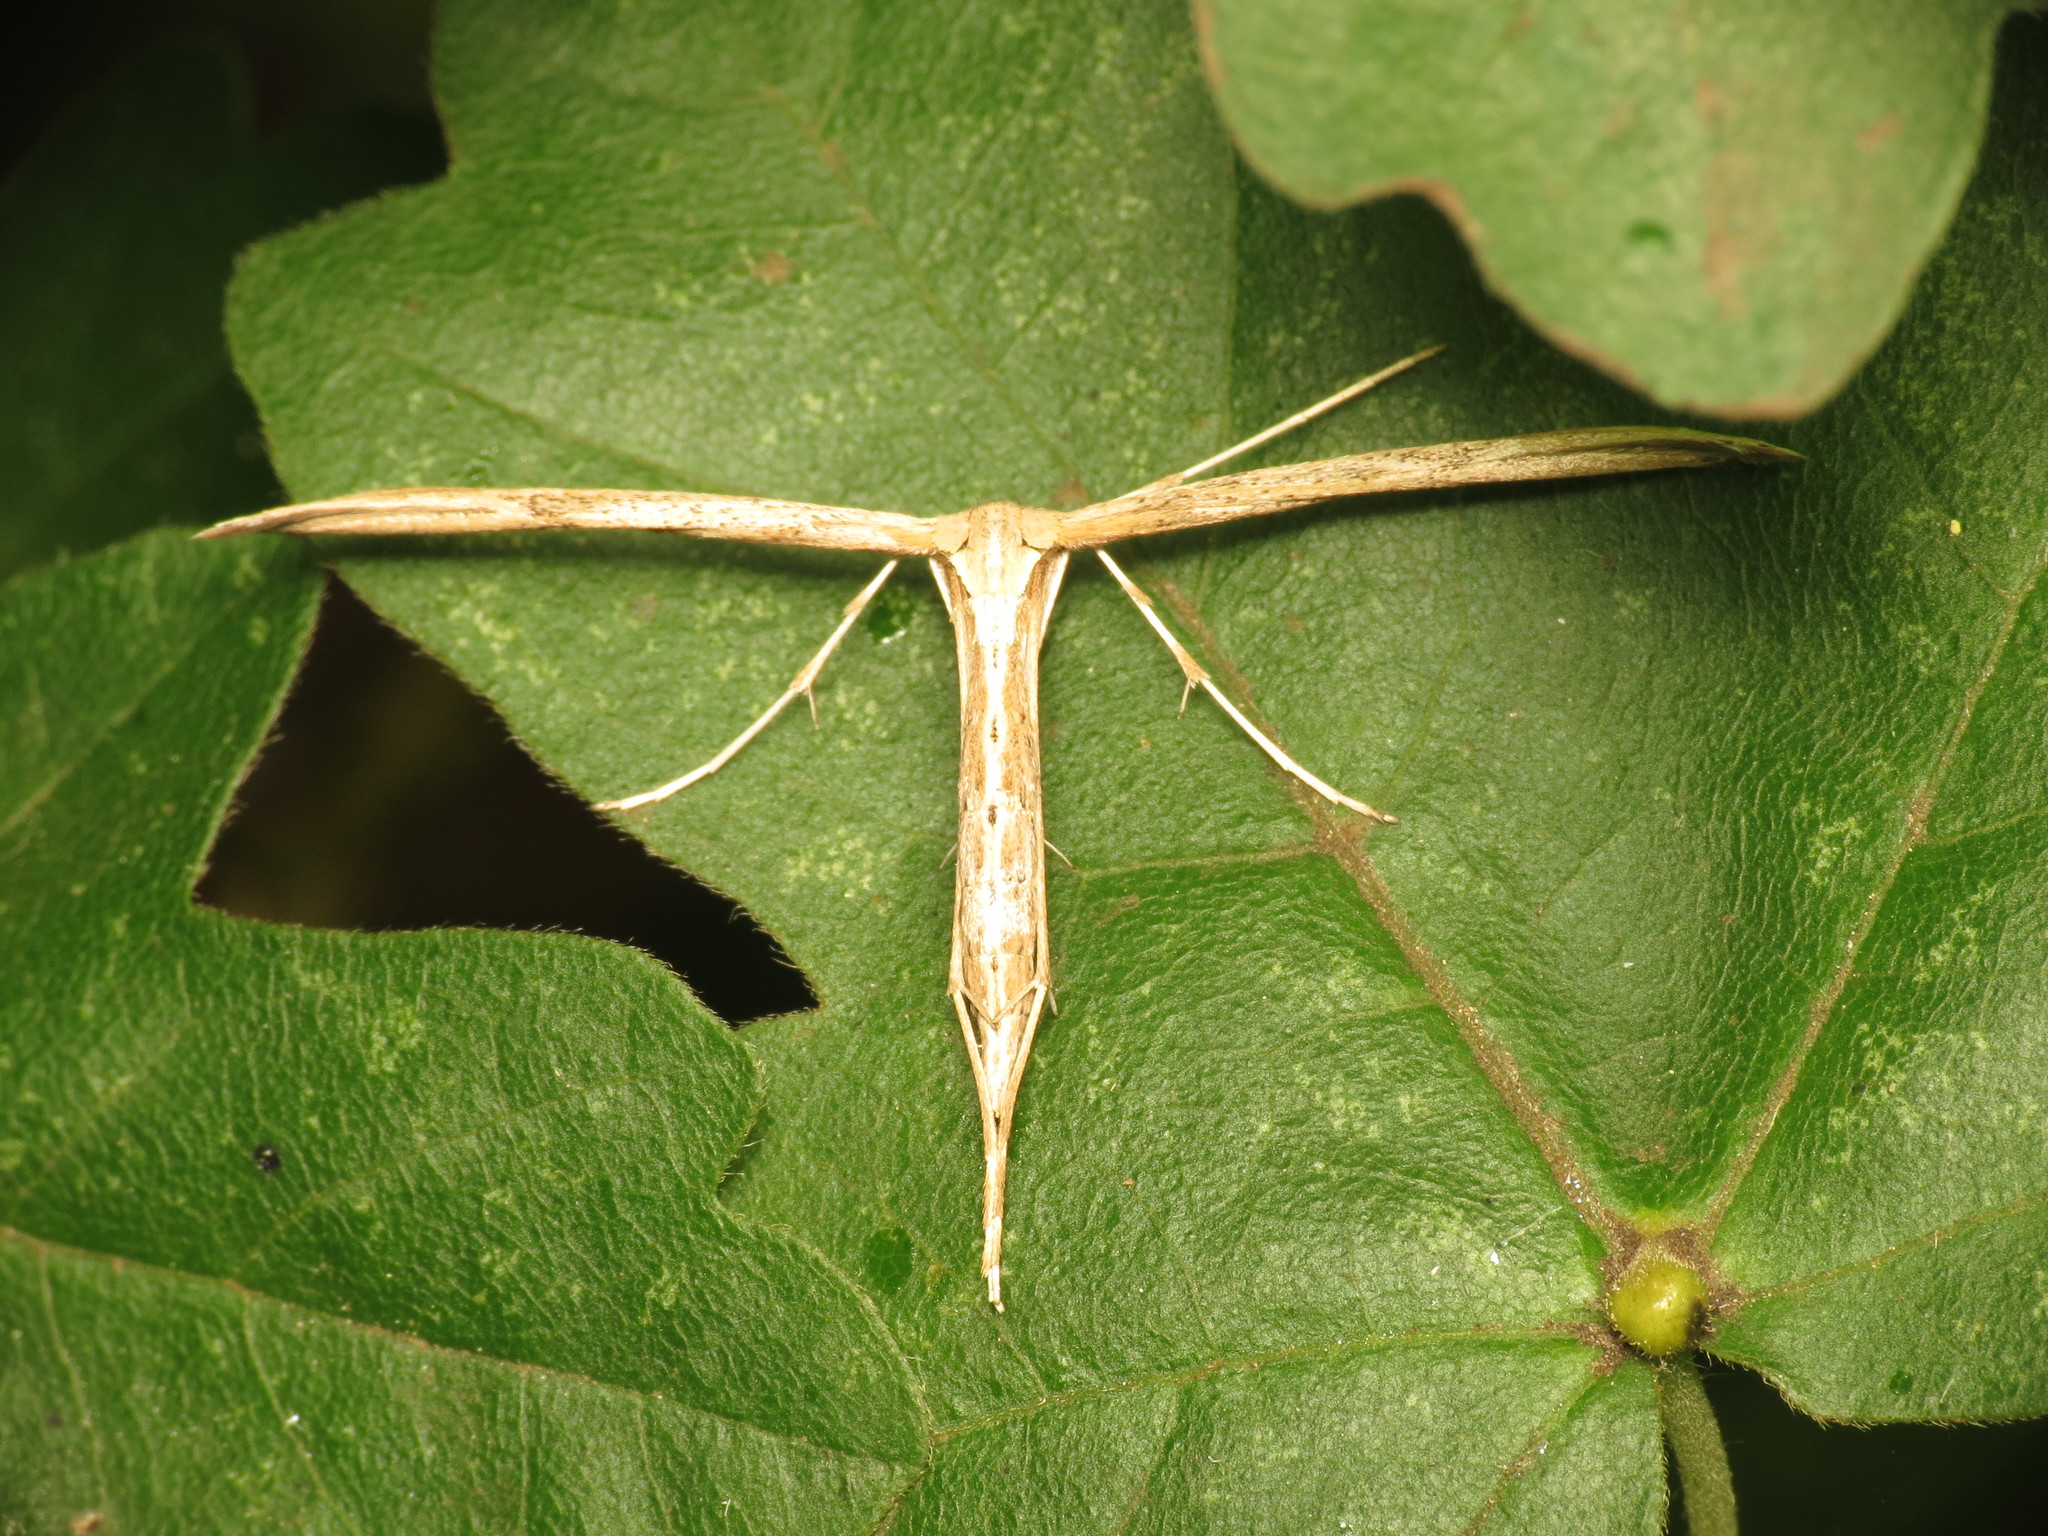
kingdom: Animalia
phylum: Arthropoda
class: Insecta
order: Lepidoptera
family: Pterophoridae
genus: Emmelina
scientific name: Emmelina monodactyla
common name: Common plume
